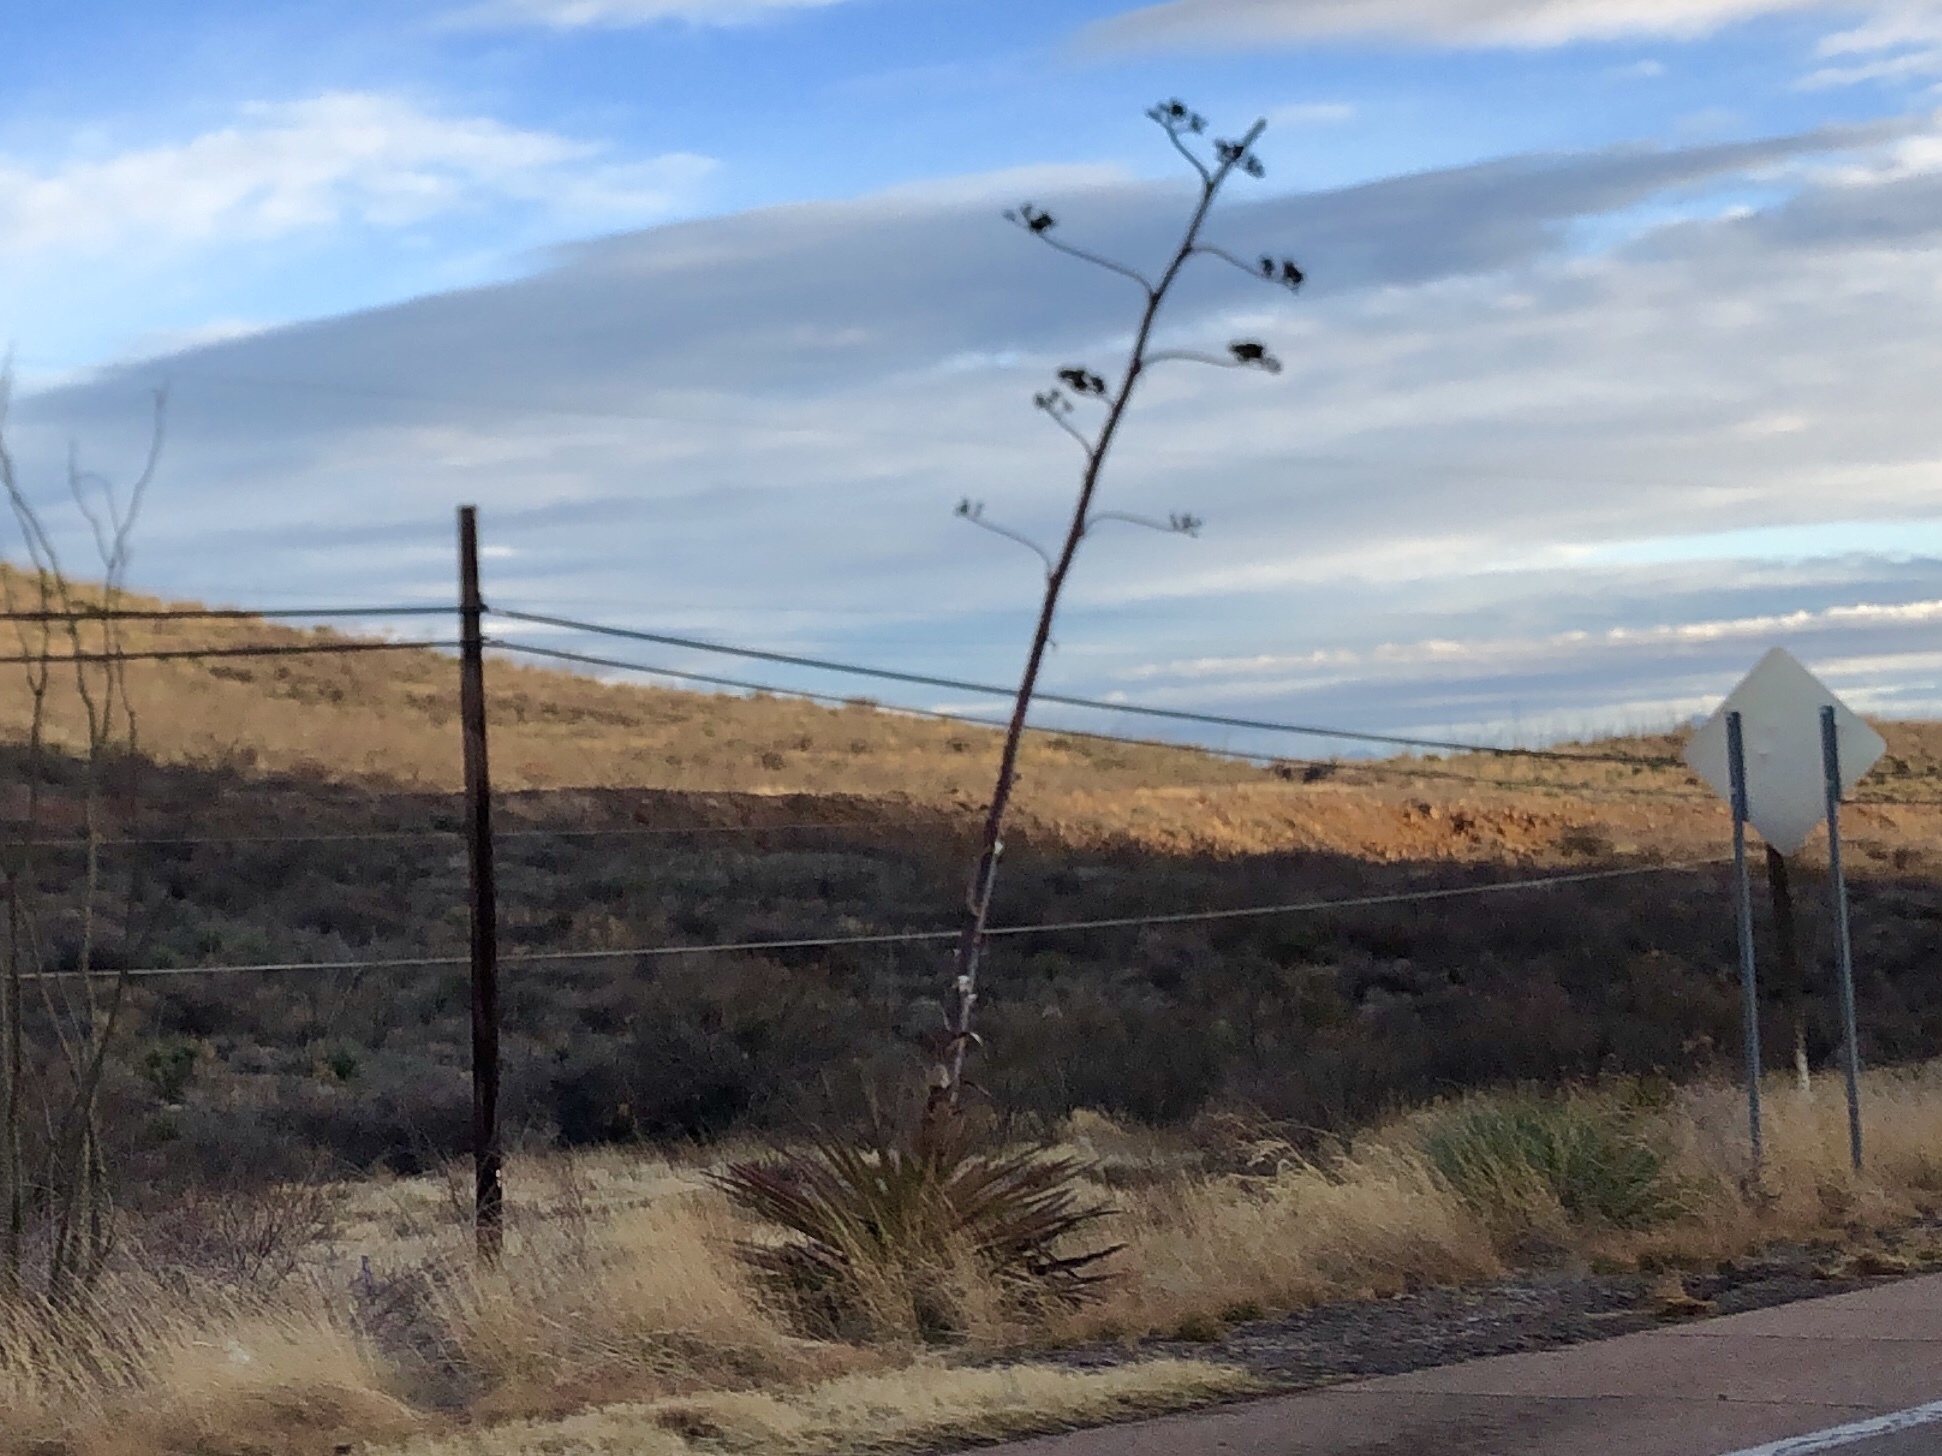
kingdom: Plantae
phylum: Tracheophyta
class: Liliopsida
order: Asparagales
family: Asparagaceae
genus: Agave
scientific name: Agave palmeri
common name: Palmer agave
